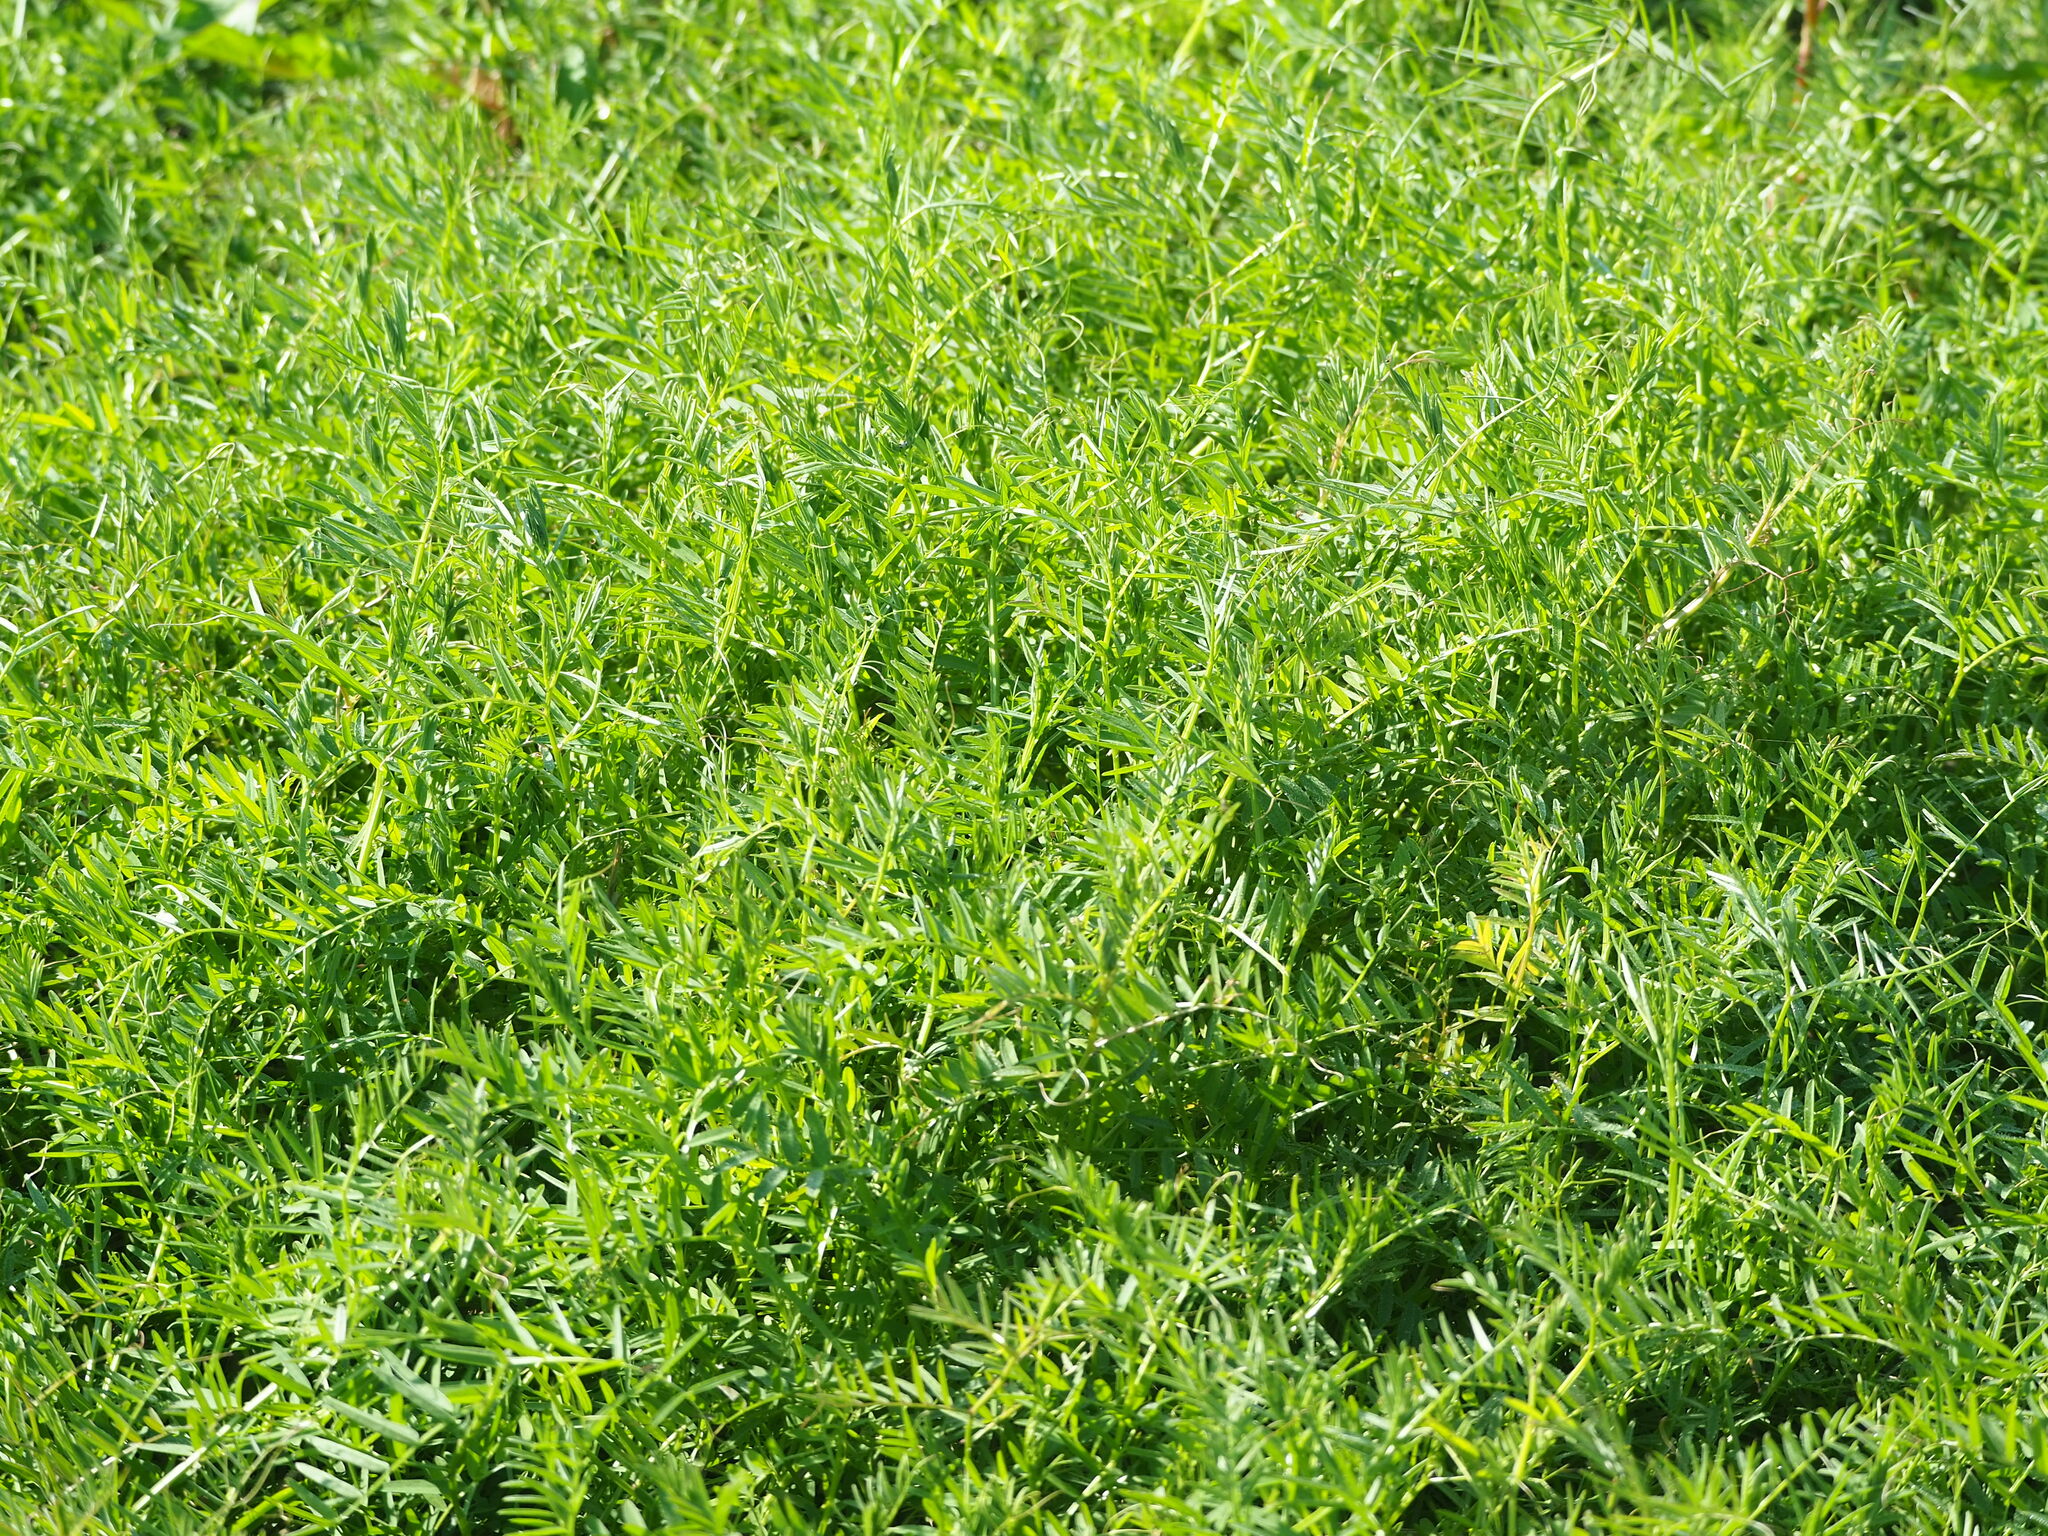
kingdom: Plantae
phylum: Tracheophyta
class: Magnoliopsida
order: Fabales
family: Fabaceae
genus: Vicia
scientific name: Vicia villosa
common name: Fodder vetch
